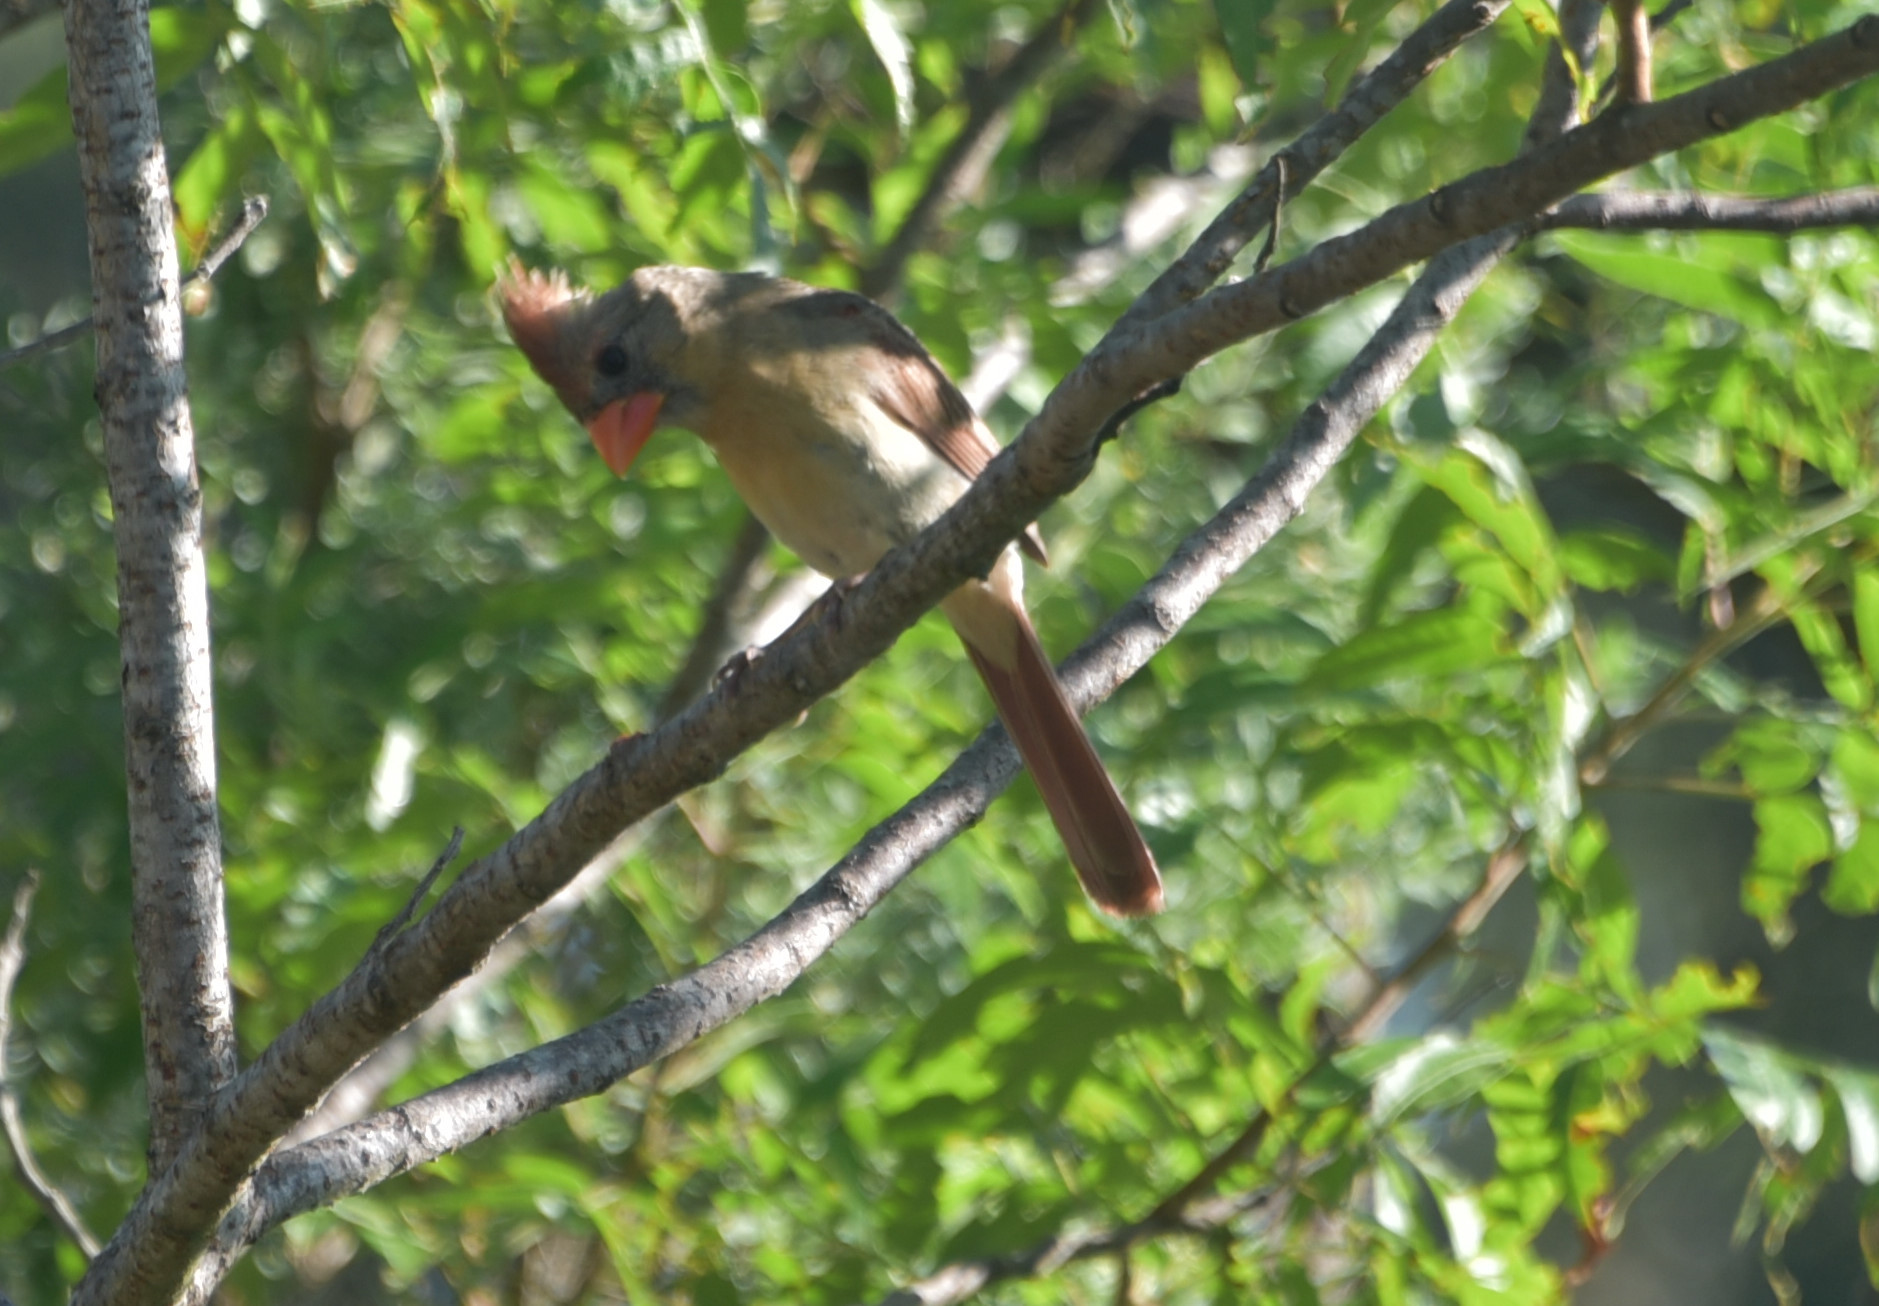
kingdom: Animalia
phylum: Chordata
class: Aves
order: Passeriformes
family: Cardinalidae
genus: Cardinalis
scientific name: Cardinalis cardinalis
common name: Northern cardinal
